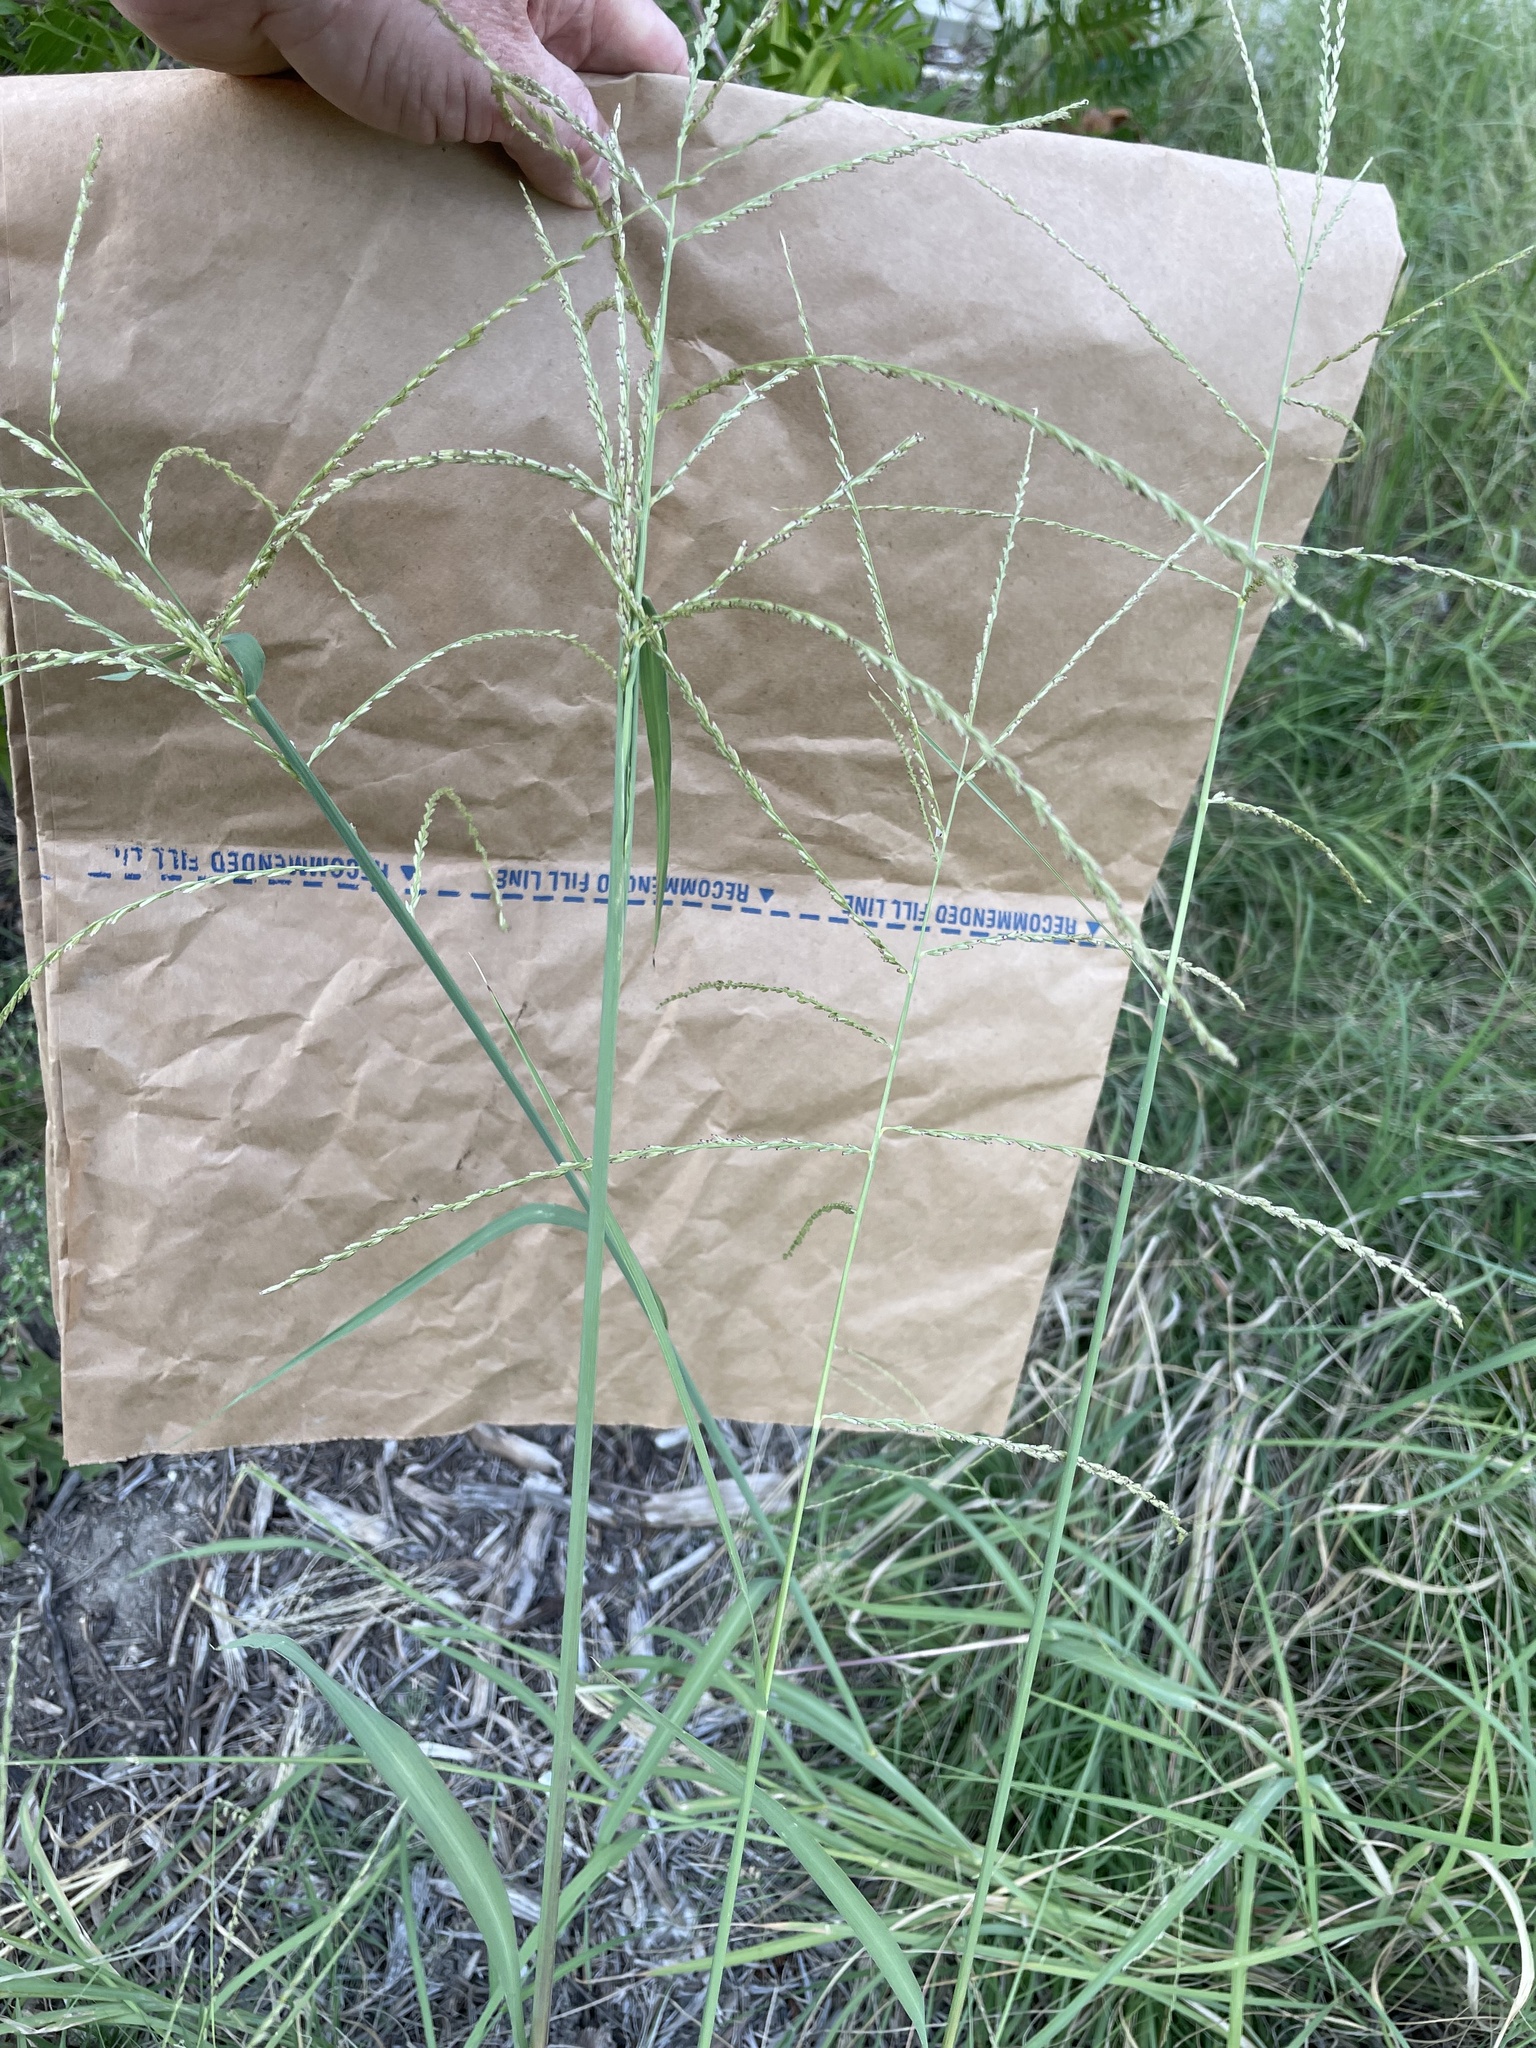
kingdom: Plantae
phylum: Tracheophyta
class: Liliopsida
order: Poales
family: Poaceae
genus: Disakisperma
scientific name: Disakisperma dubium
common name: Green sprangletop
